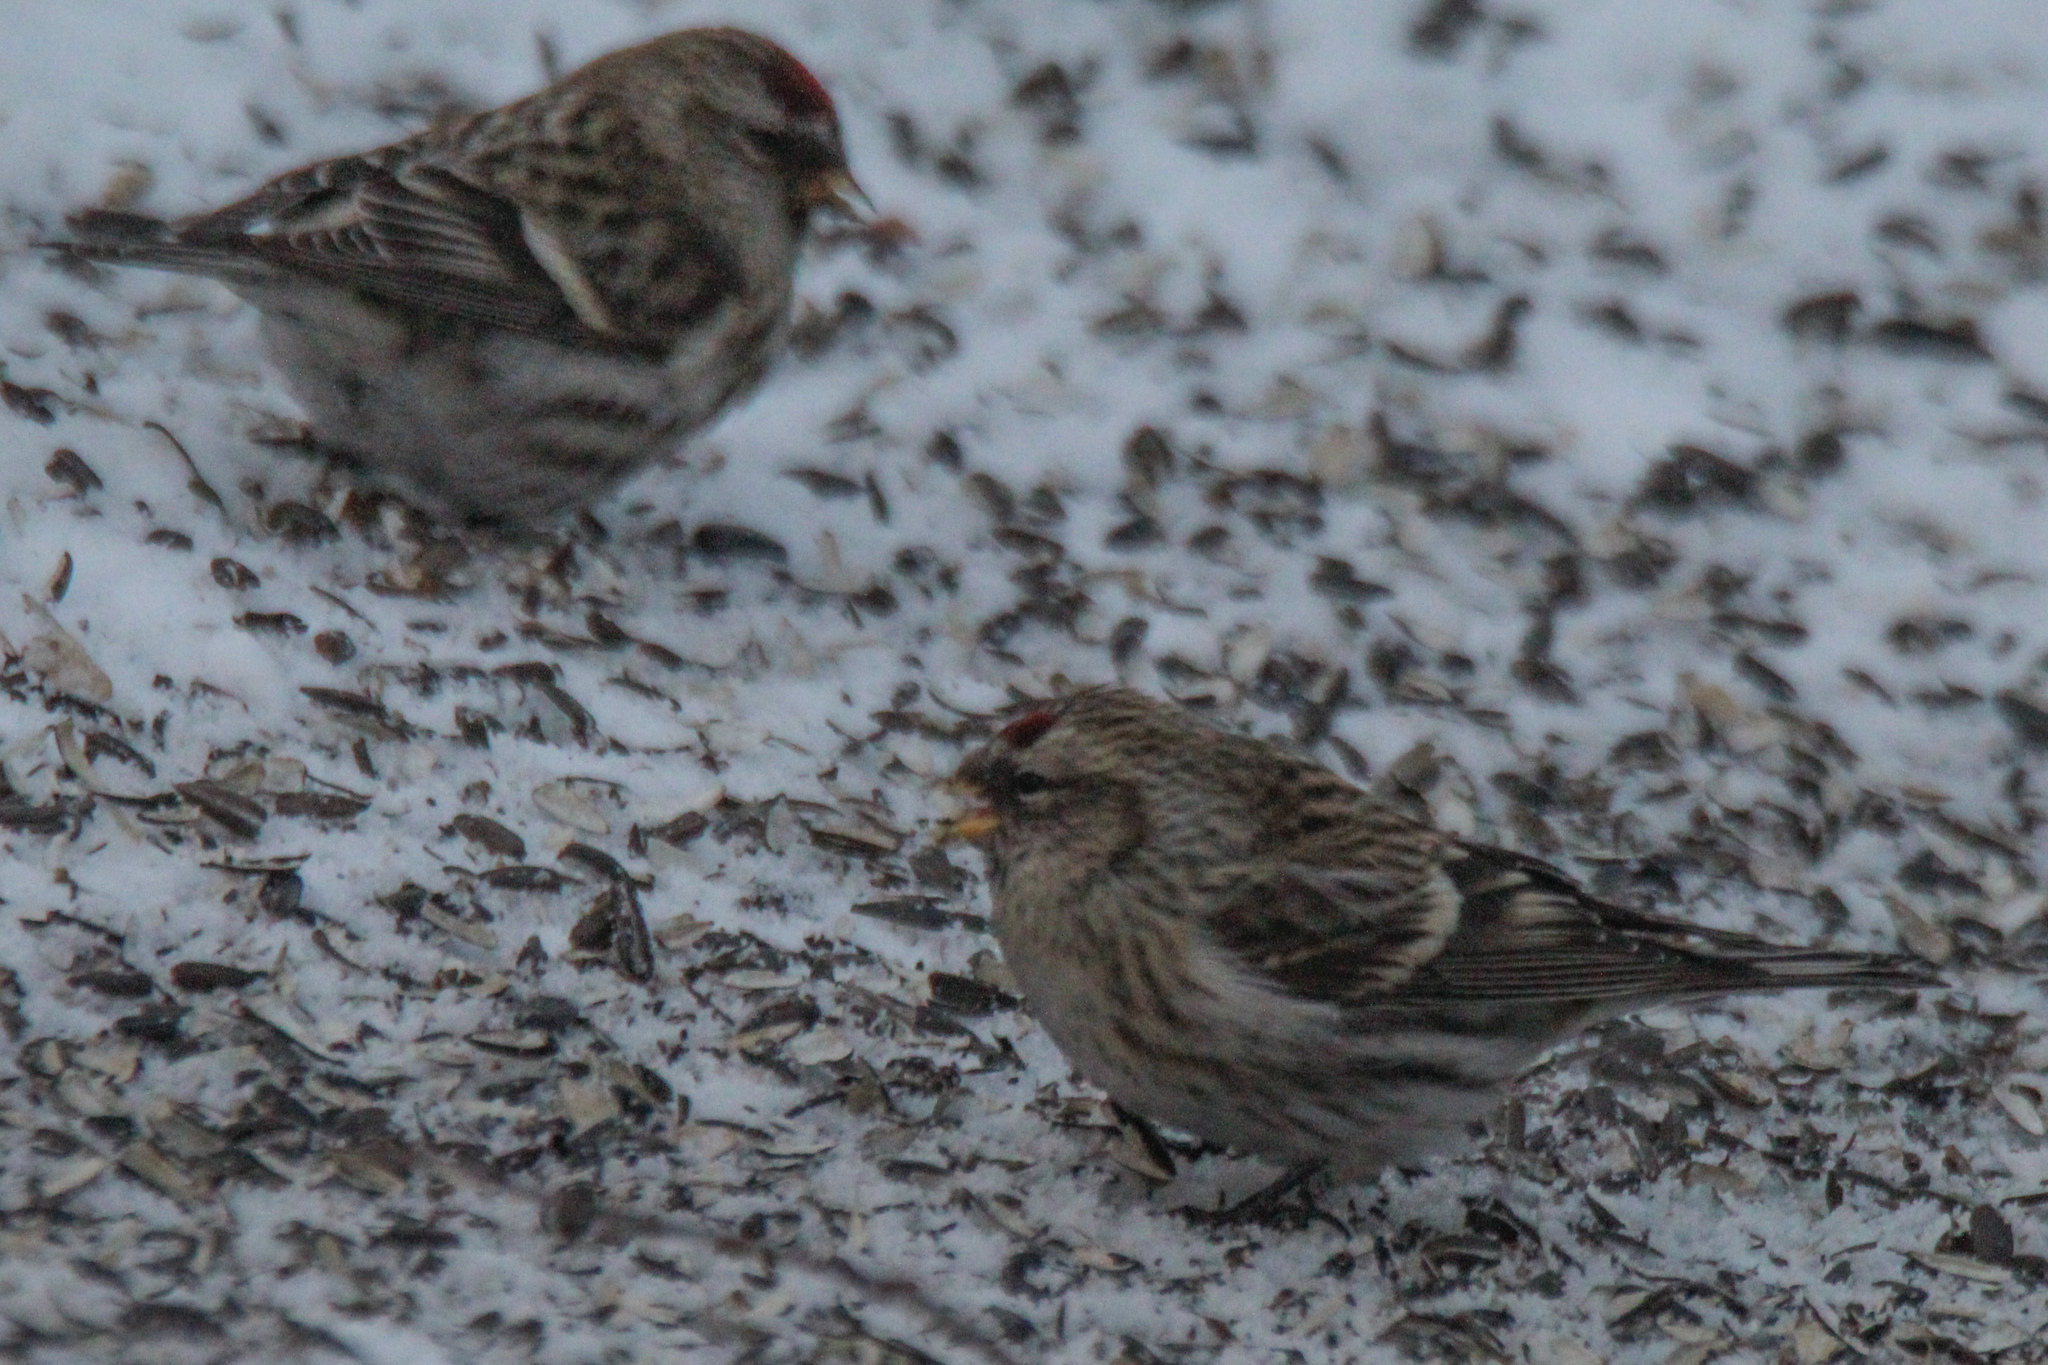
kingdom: Animalia
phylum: Chordata
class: Aves
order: Passeriformes
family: Fringillidae
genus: Acanthis
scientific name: Acanthis flammea
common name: Common redpoll
